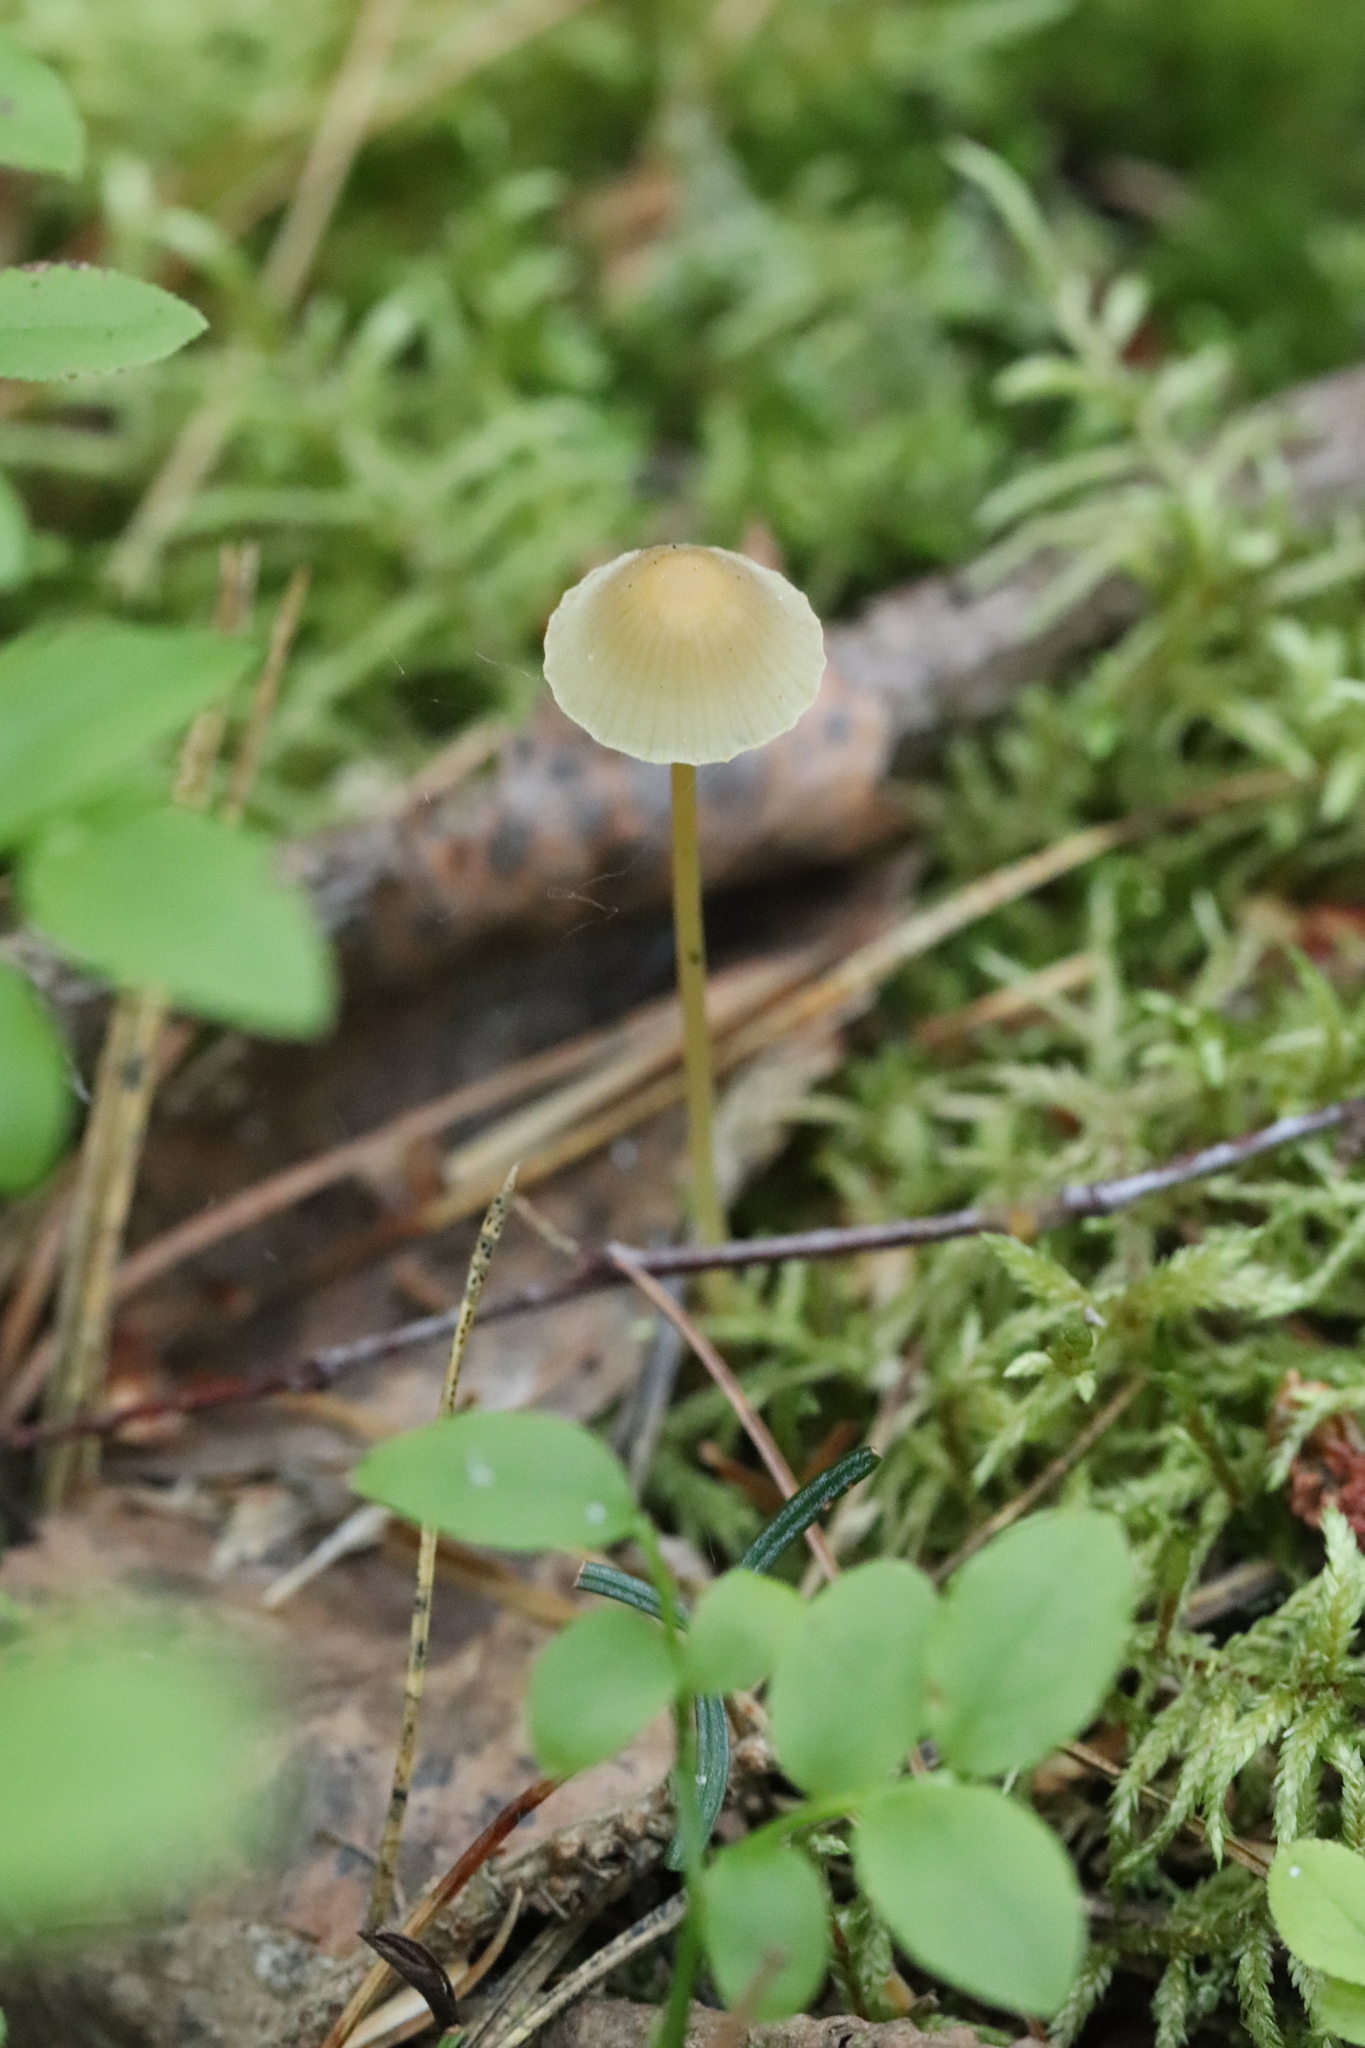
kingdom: Fungi
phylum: Basidiomycota
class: Agaricomycetes
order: Agaricales
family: Mycenaceae
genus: Mycena
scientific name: Mycena epipterygia
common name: Yellowleg bonnet
